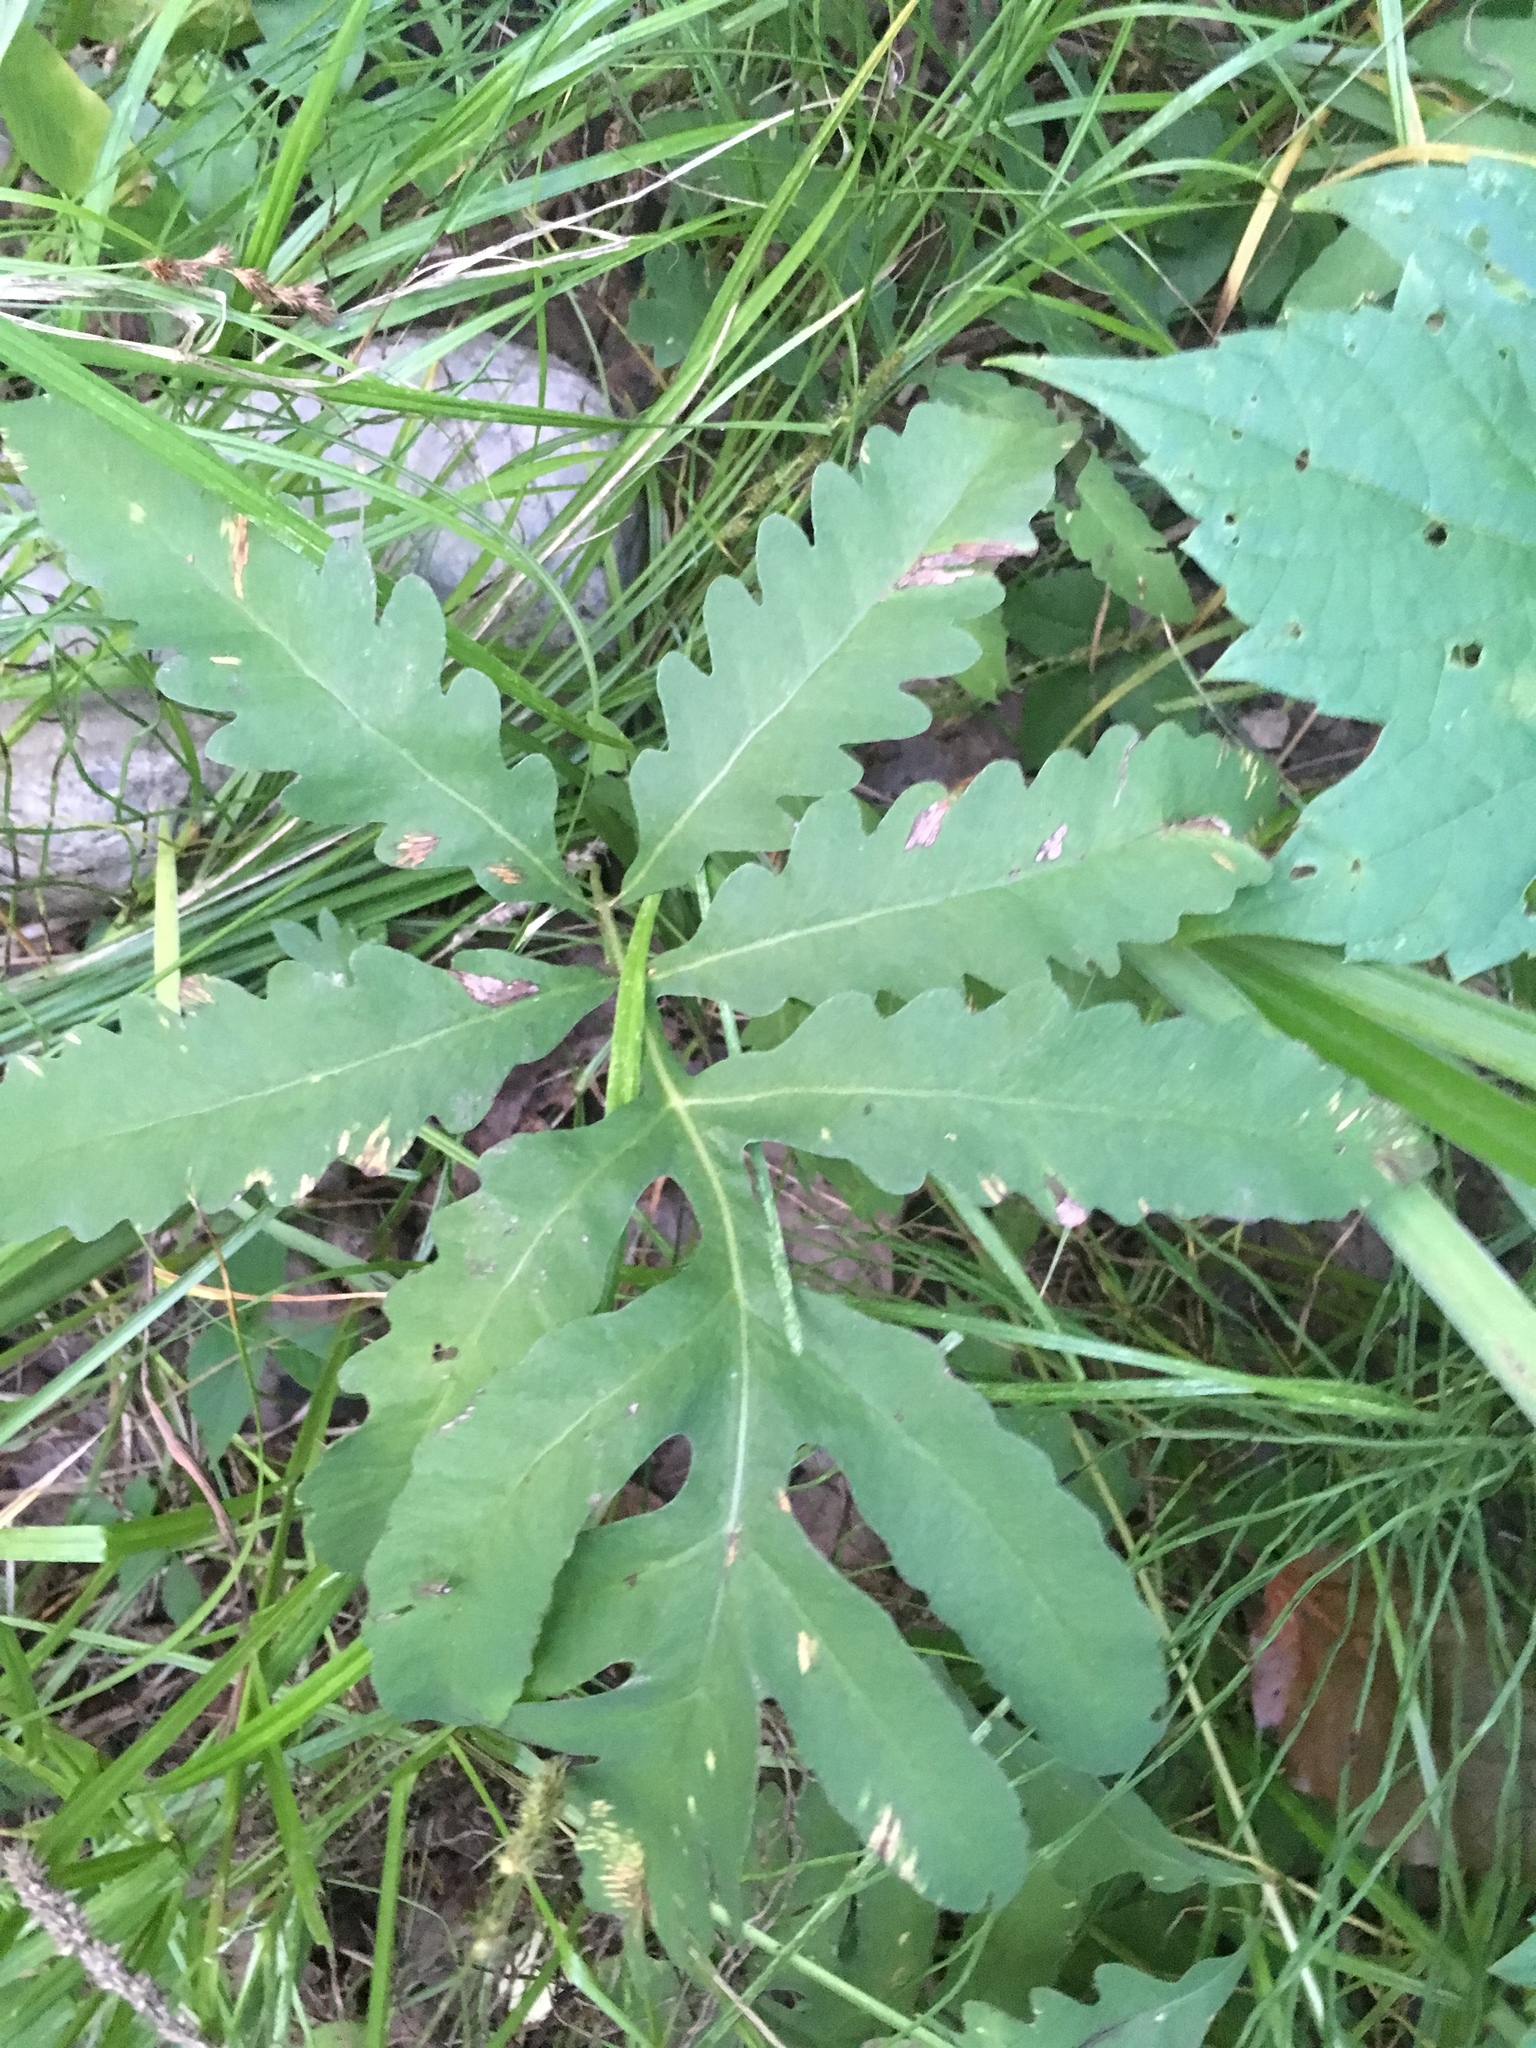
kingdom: Plantae
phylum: Tracheophyta
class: Polypodiopsida
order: Polypodiales
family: Onocleaceae
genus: Onoclea
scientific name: Onoclea sensibilis
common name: Sensitive fern
